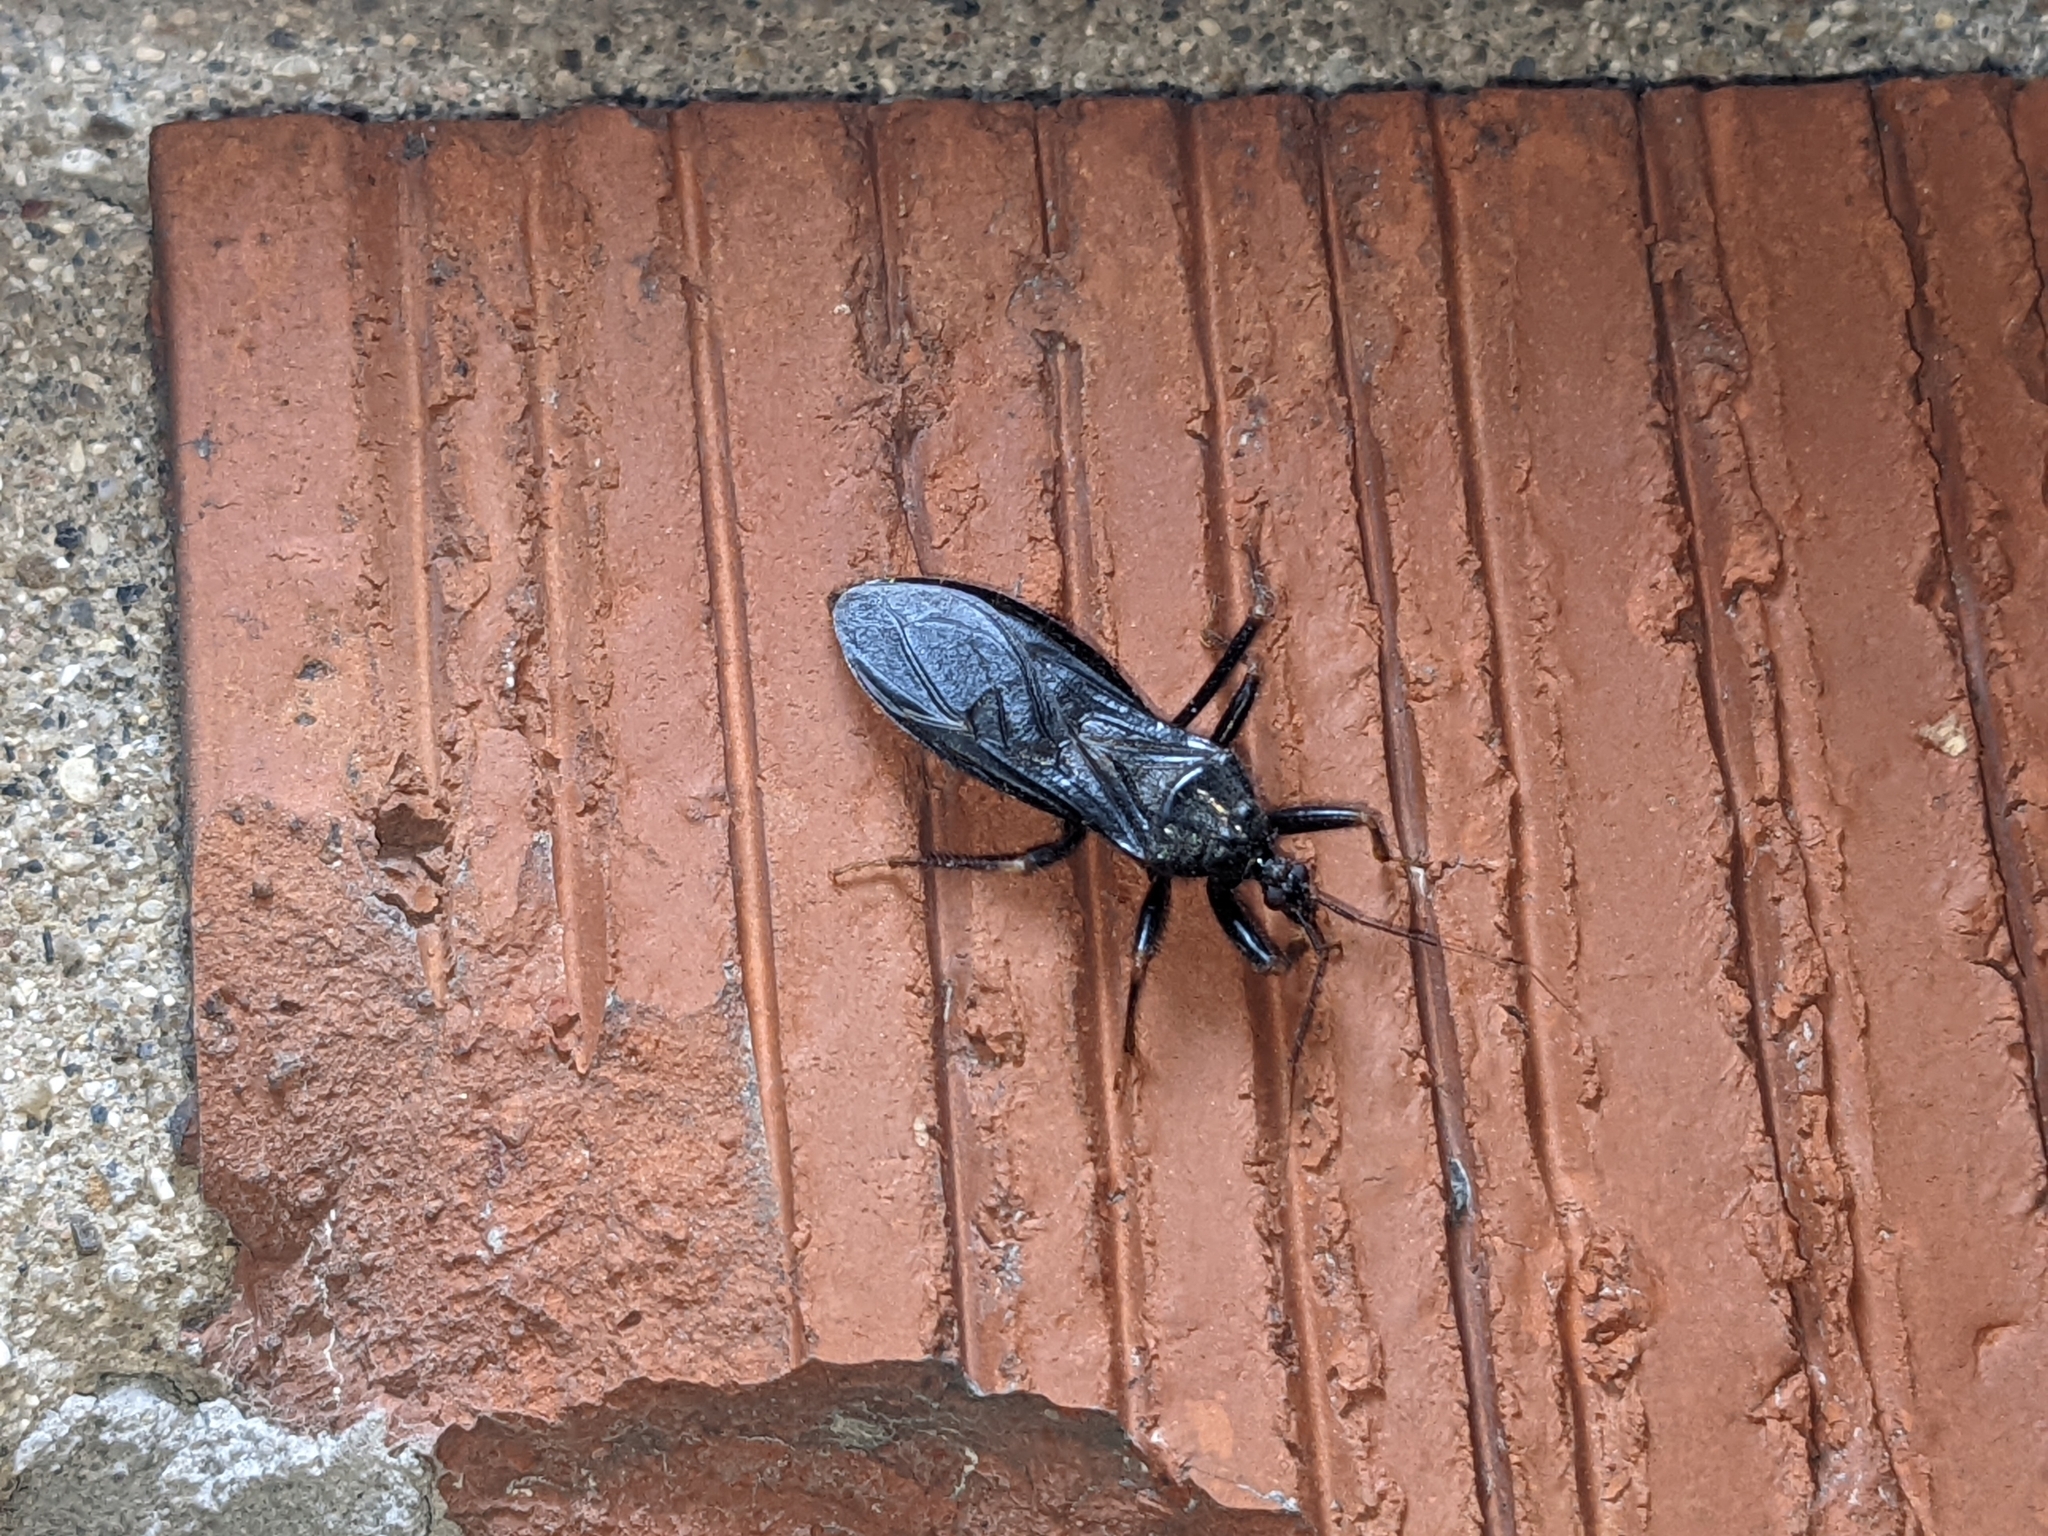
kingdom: Animalia
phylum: Arthropoda
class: Insecta
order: Hemiptera
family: Reduviidae
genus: Reduvius
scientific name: Reduvius personatus
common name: Masked hunter
